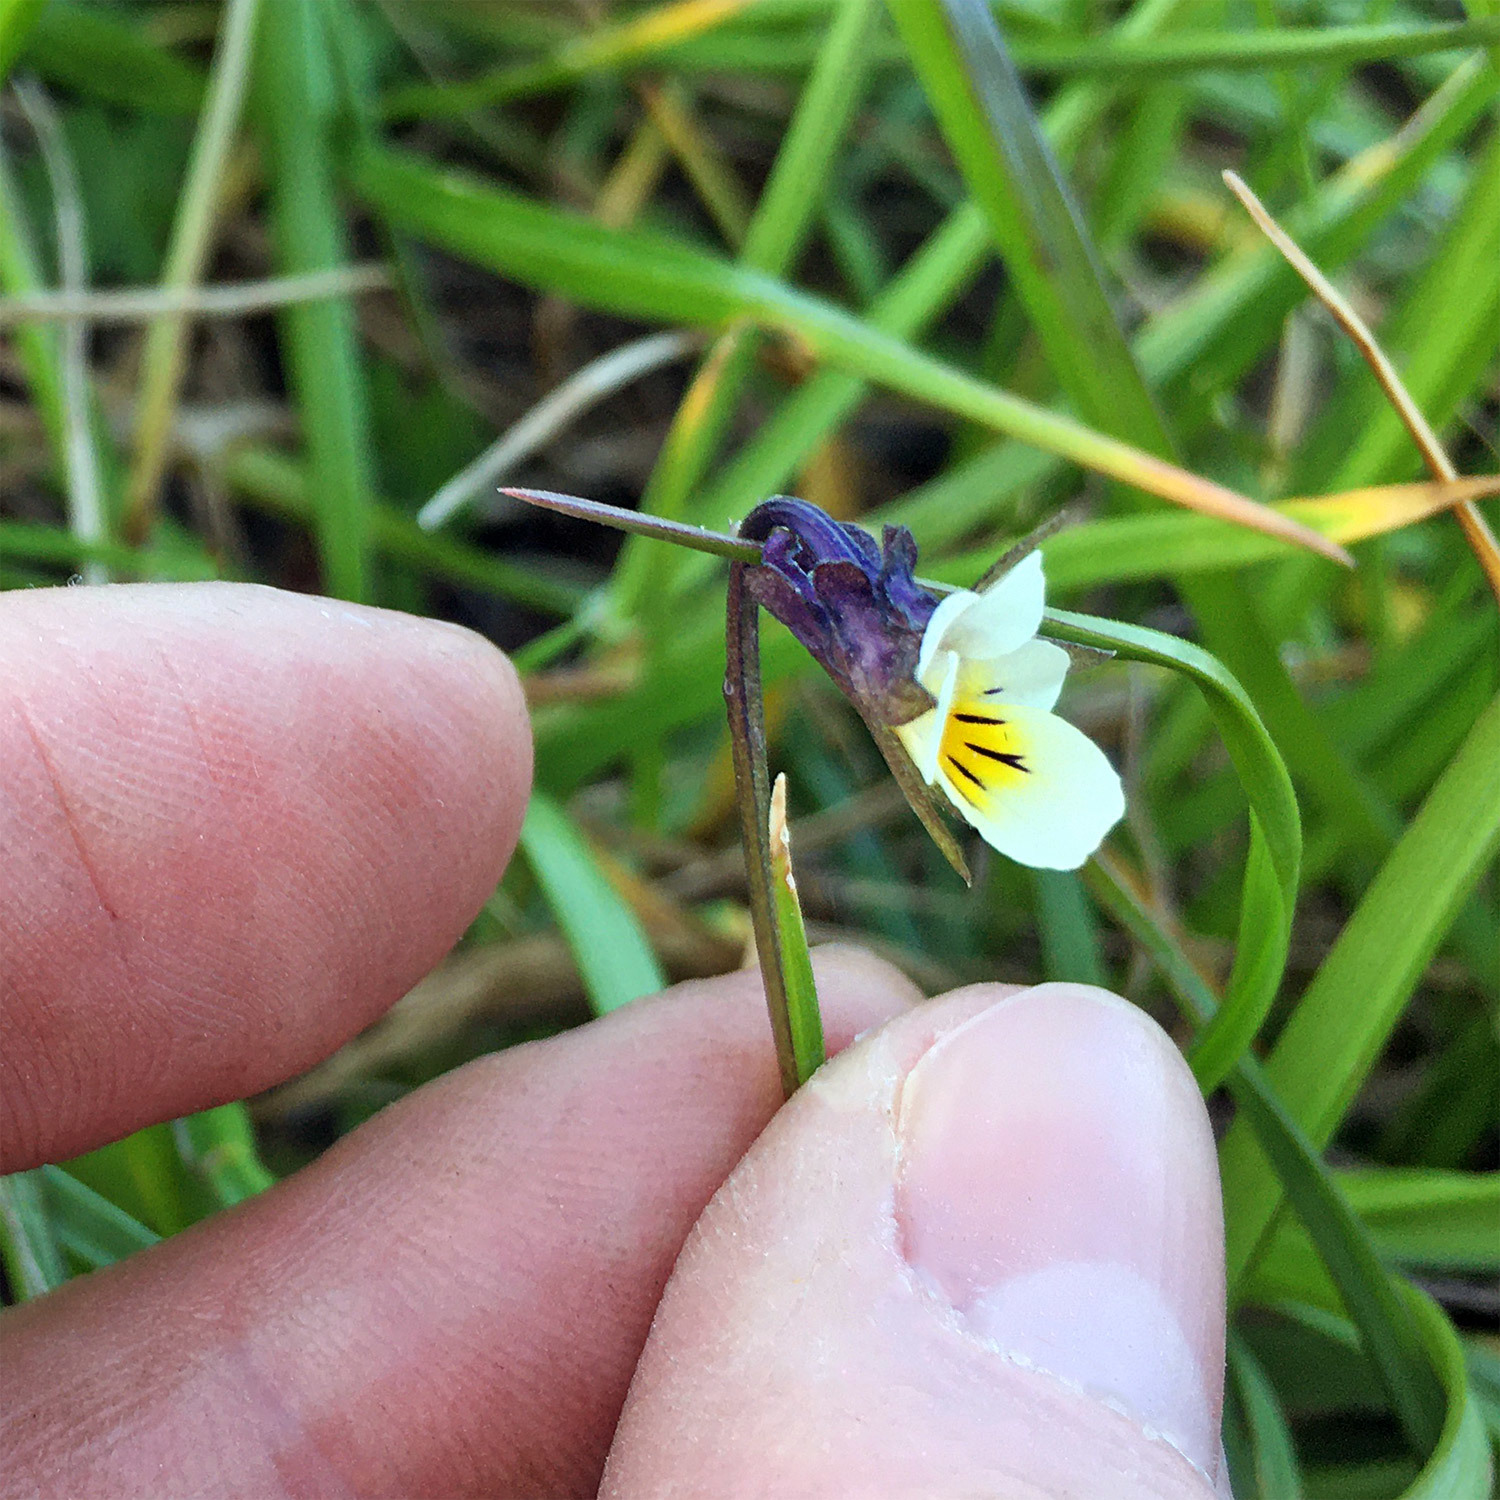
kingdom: Plantae
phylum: Tracheophyta
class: Magnoliopsida
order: Malpighiales
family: Violaceae
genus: Viola
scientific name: Viola arvensis
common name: Field pansy
